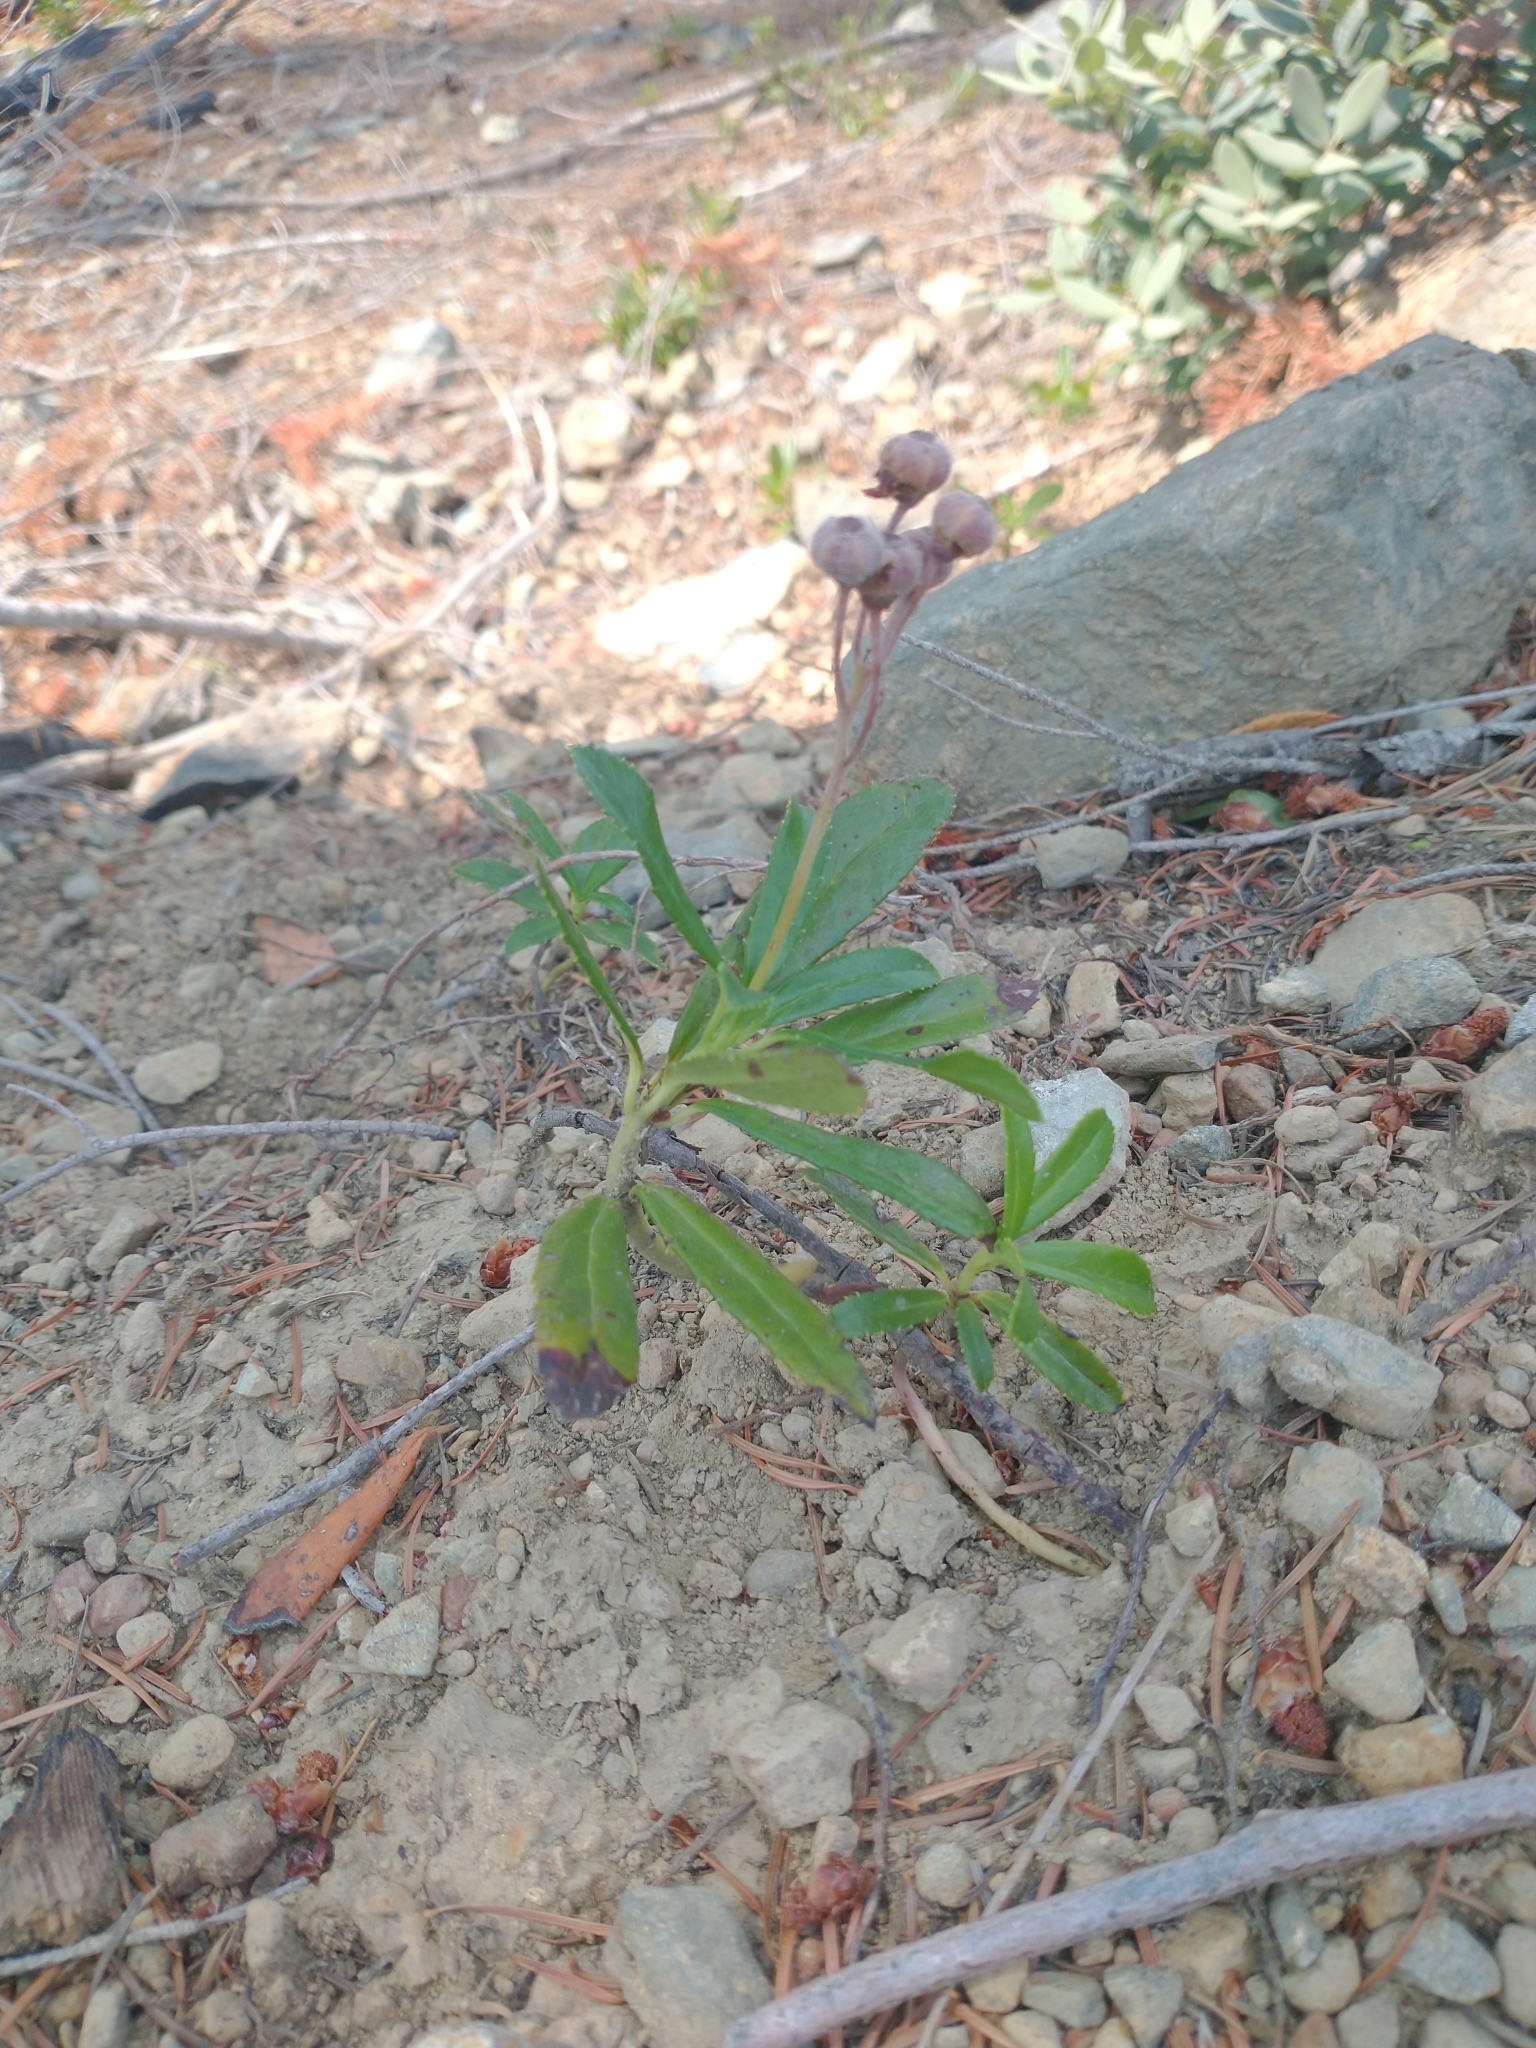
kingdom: Plantae
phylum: Tracheophyta
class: Magnoliopsida
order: Ericales
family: Ericaceae
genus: Chimaphila
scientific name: Chimaphila umbellata
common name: Pipsissewa
